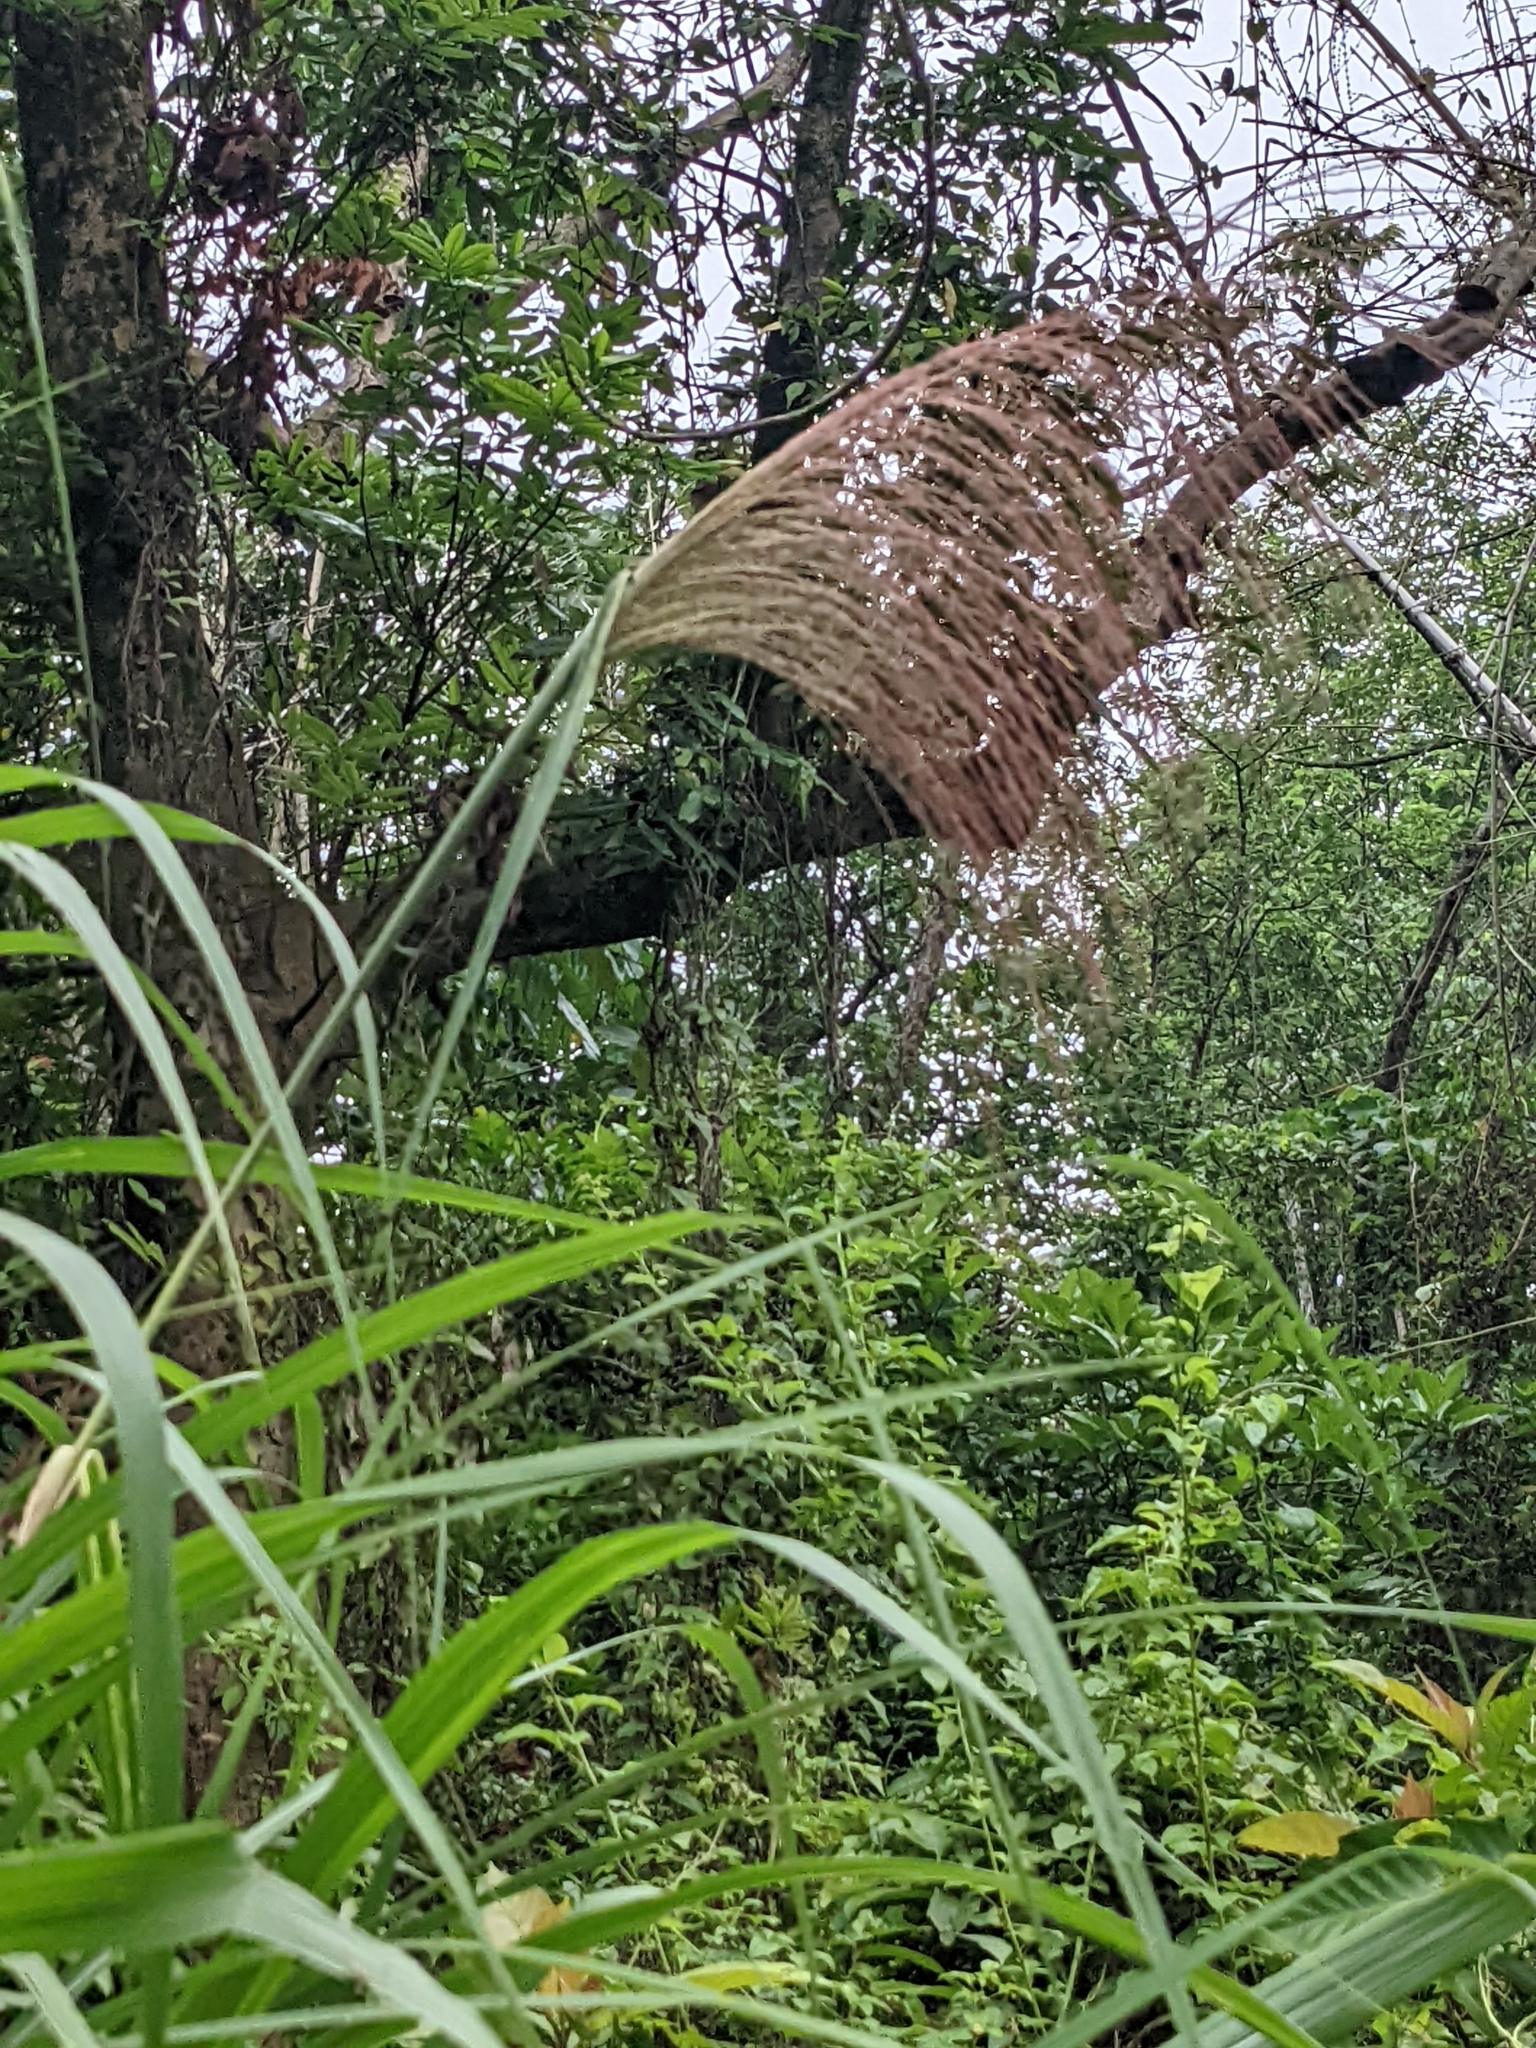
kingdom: Plantae
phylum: Tracheophyta
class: Liliopsida
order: Poales
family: Poaceae
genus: Miscanthus
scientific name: Miscanthus sinensis
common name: Chinese silvergrass
